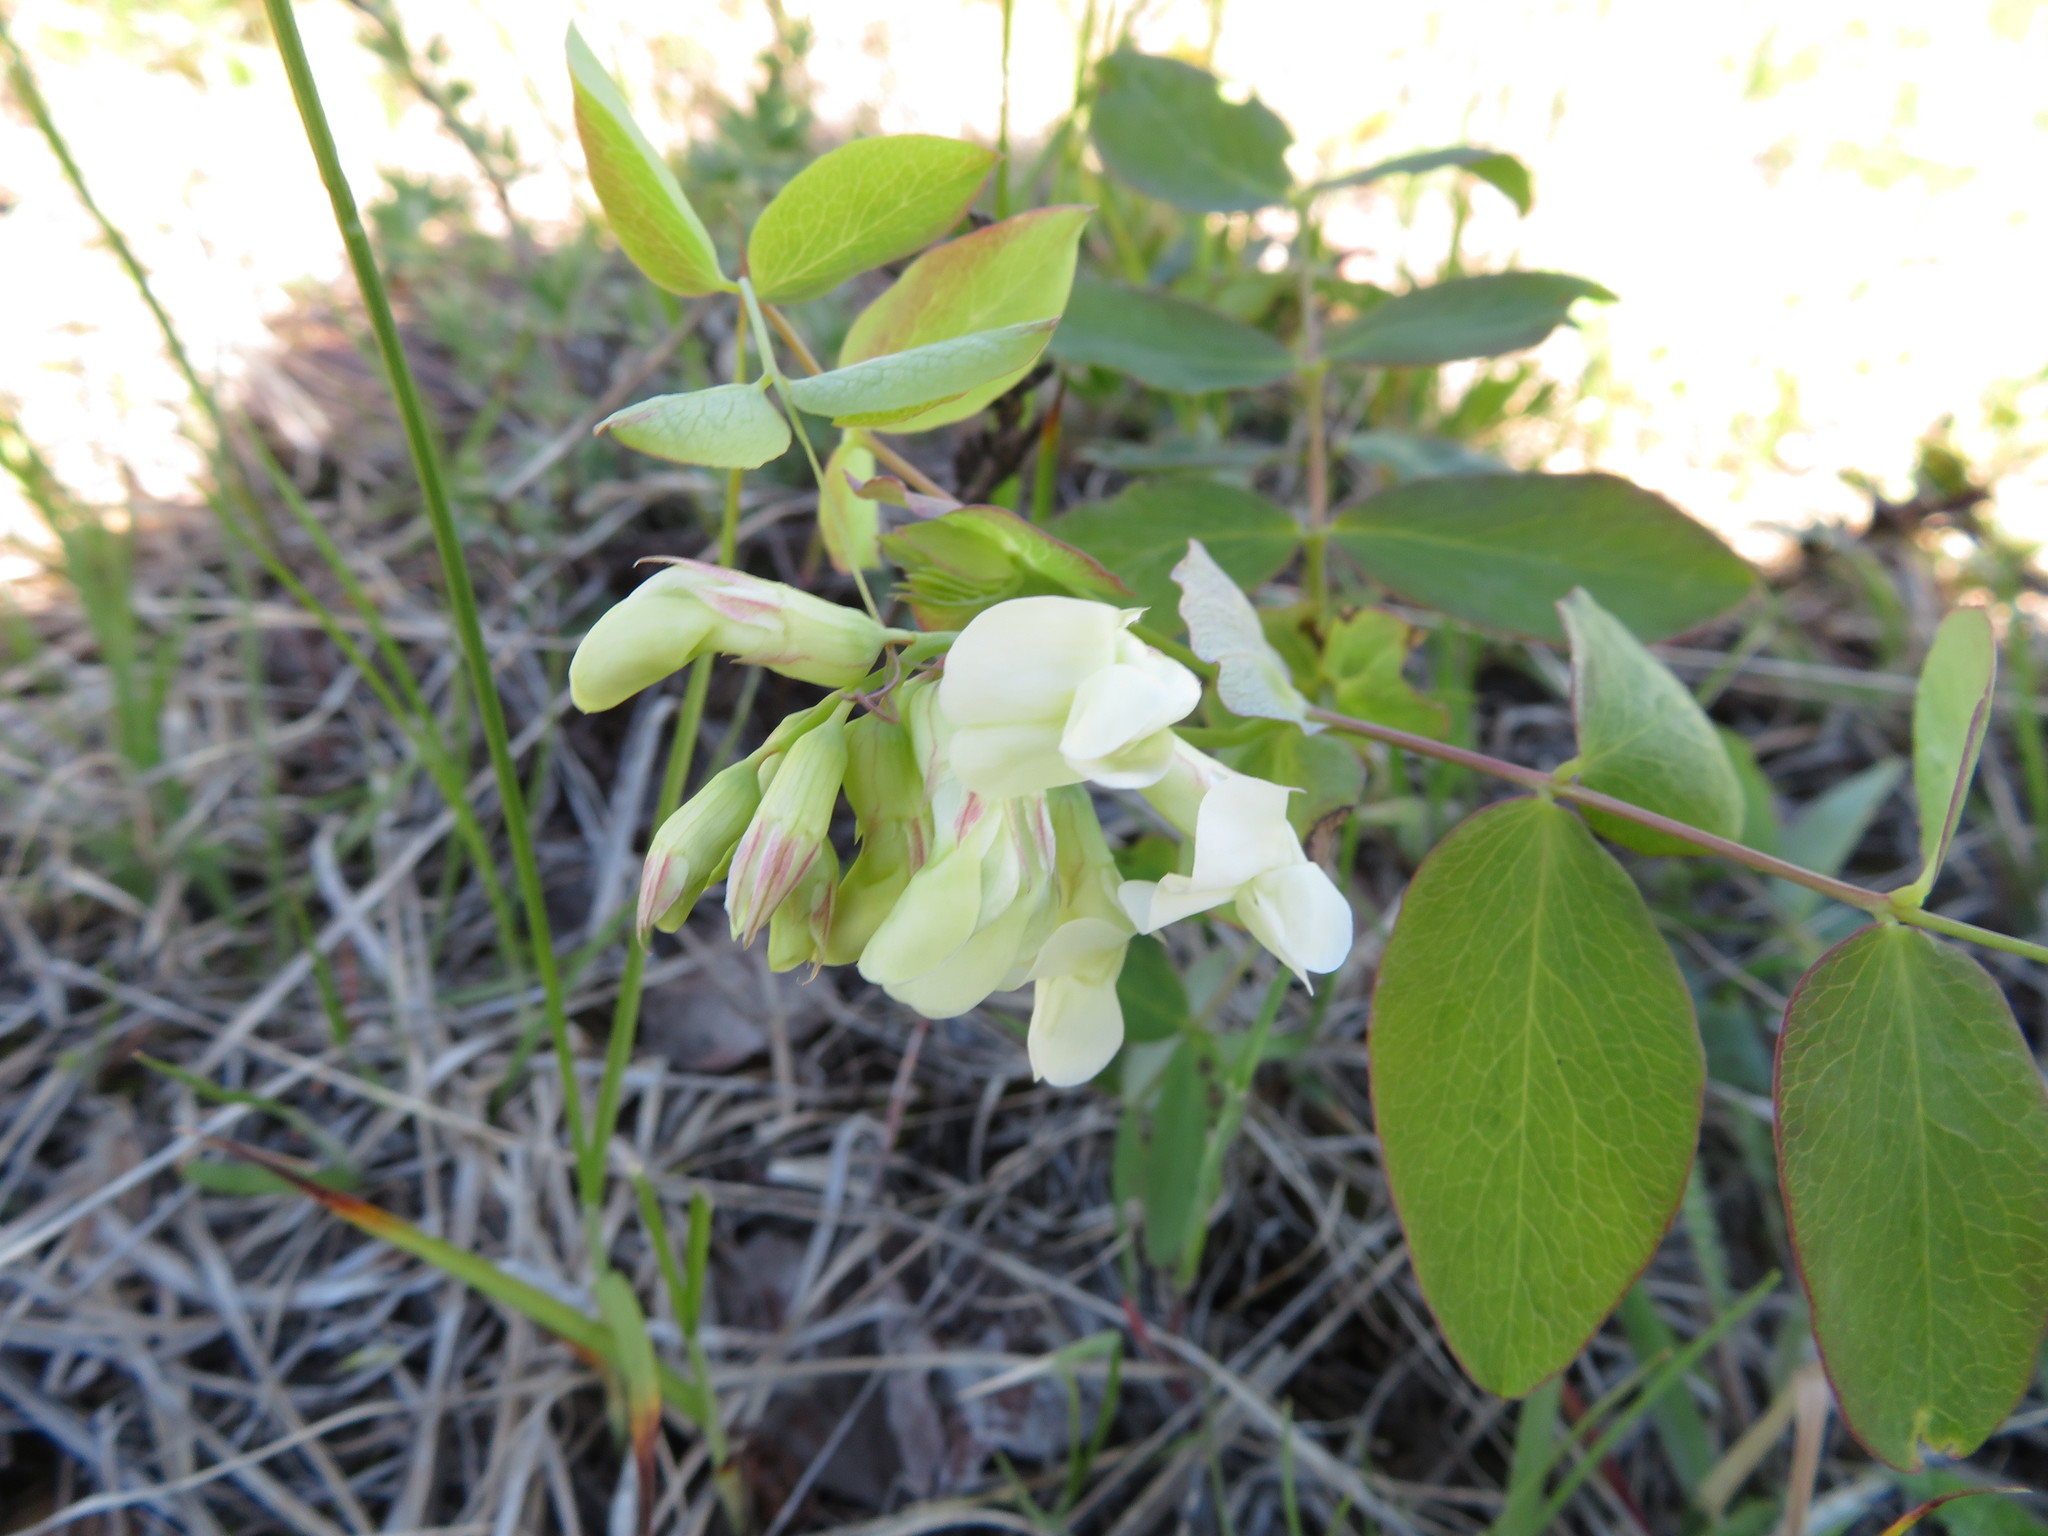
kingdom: Plantae
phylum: Tracheophyta
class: Magnoliopsida
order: Fabales
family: Fabaceae
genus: Lathyrus
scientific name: Lathyrus ochroleucus
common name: Pale vetchling
